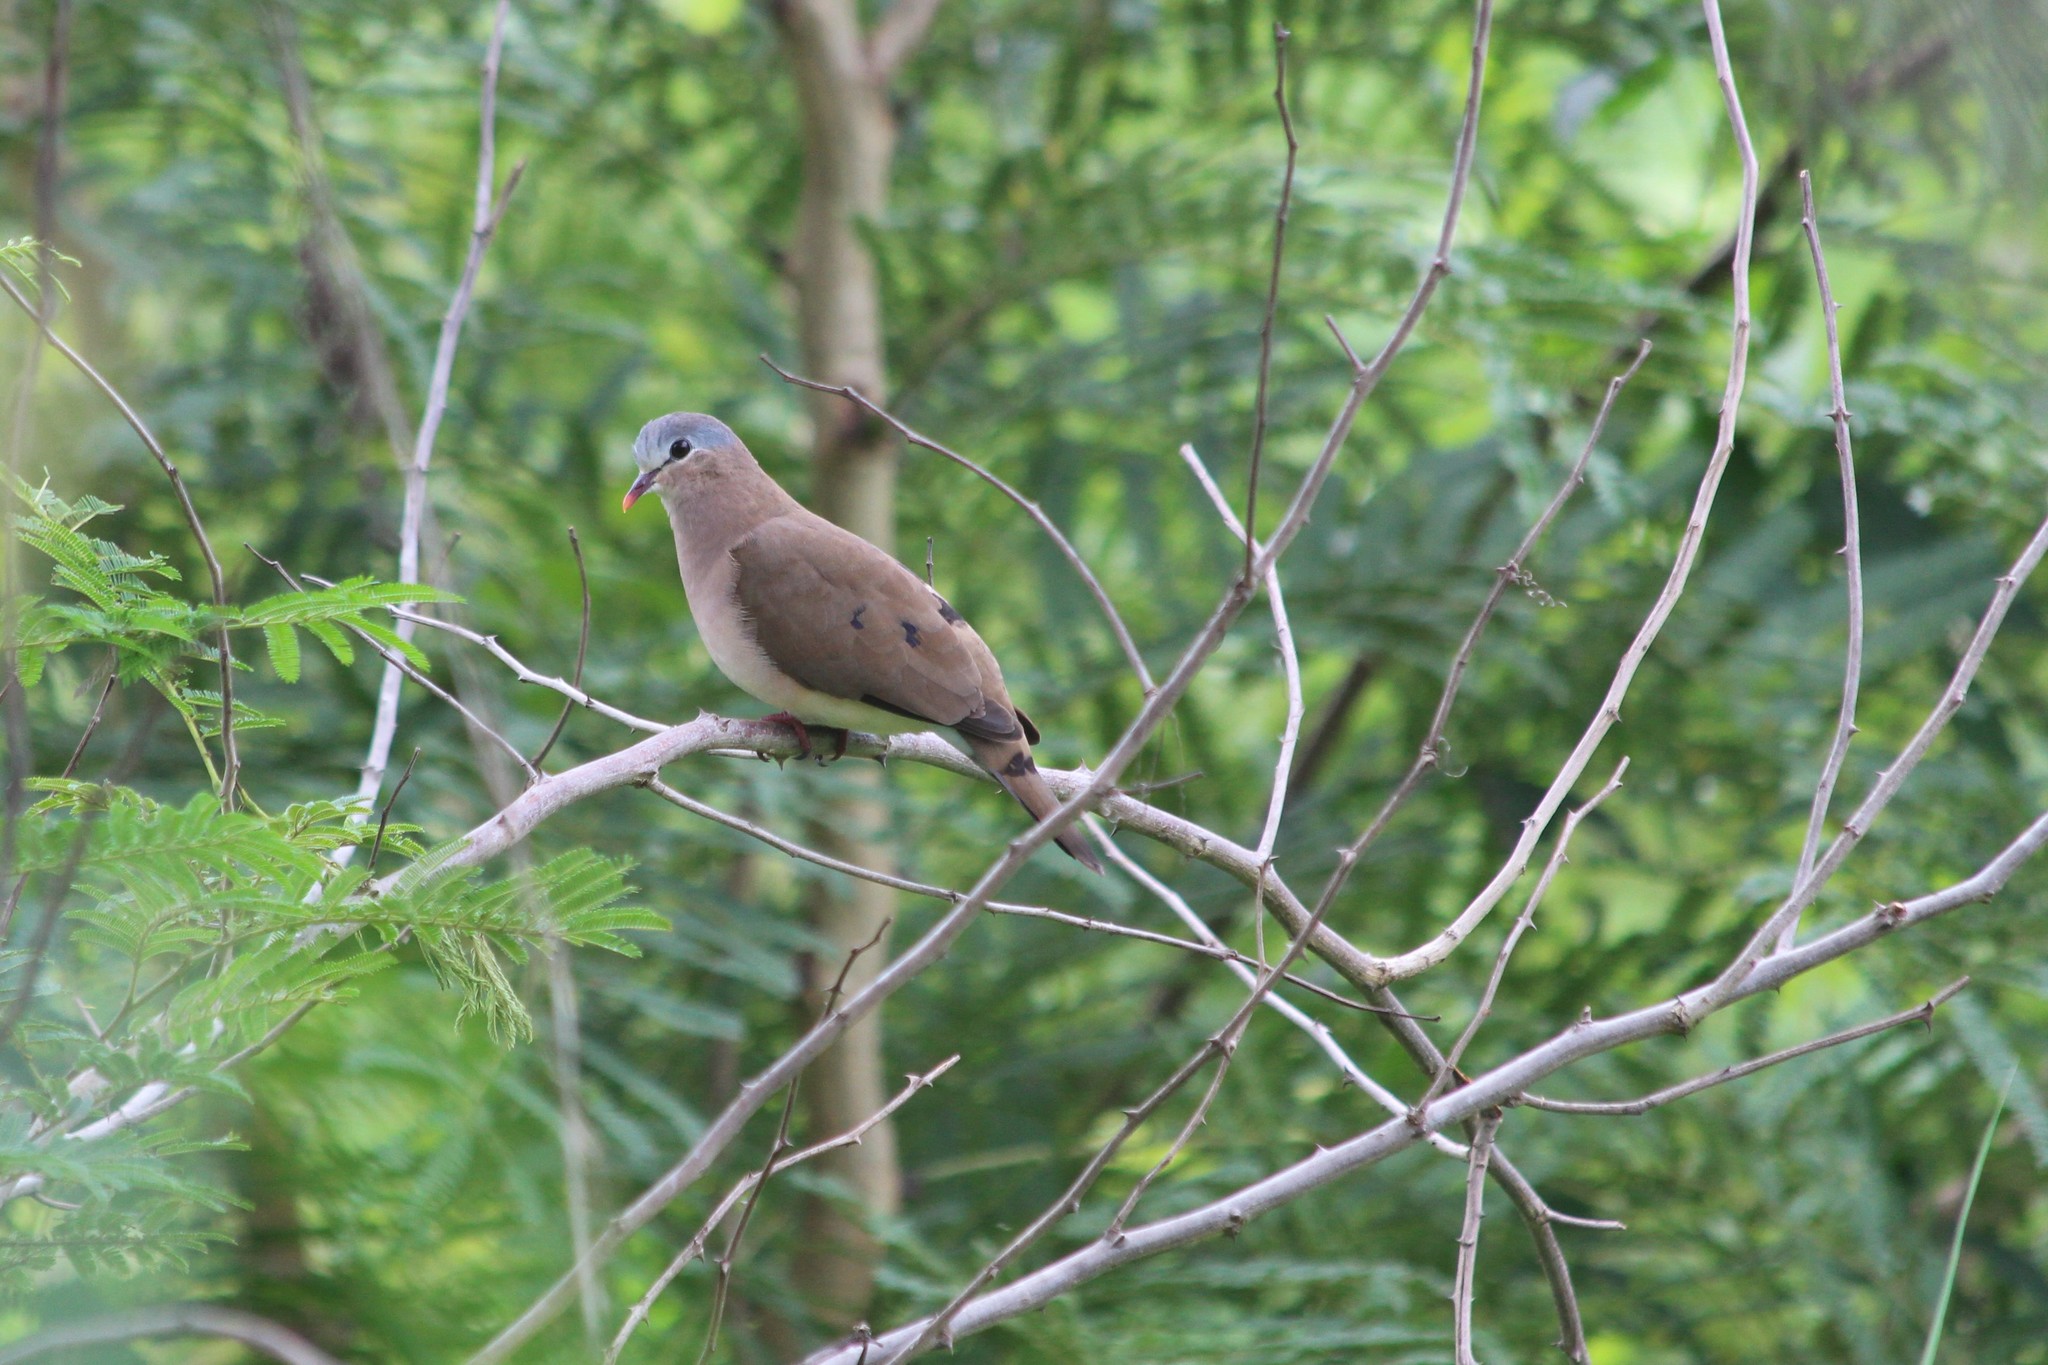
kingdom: Animalia
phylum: Chordata
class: Aves
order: Columbiformes
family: Columbidae
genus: Turtur
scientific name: Turtur afer
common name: Blue-spotted wood dove
